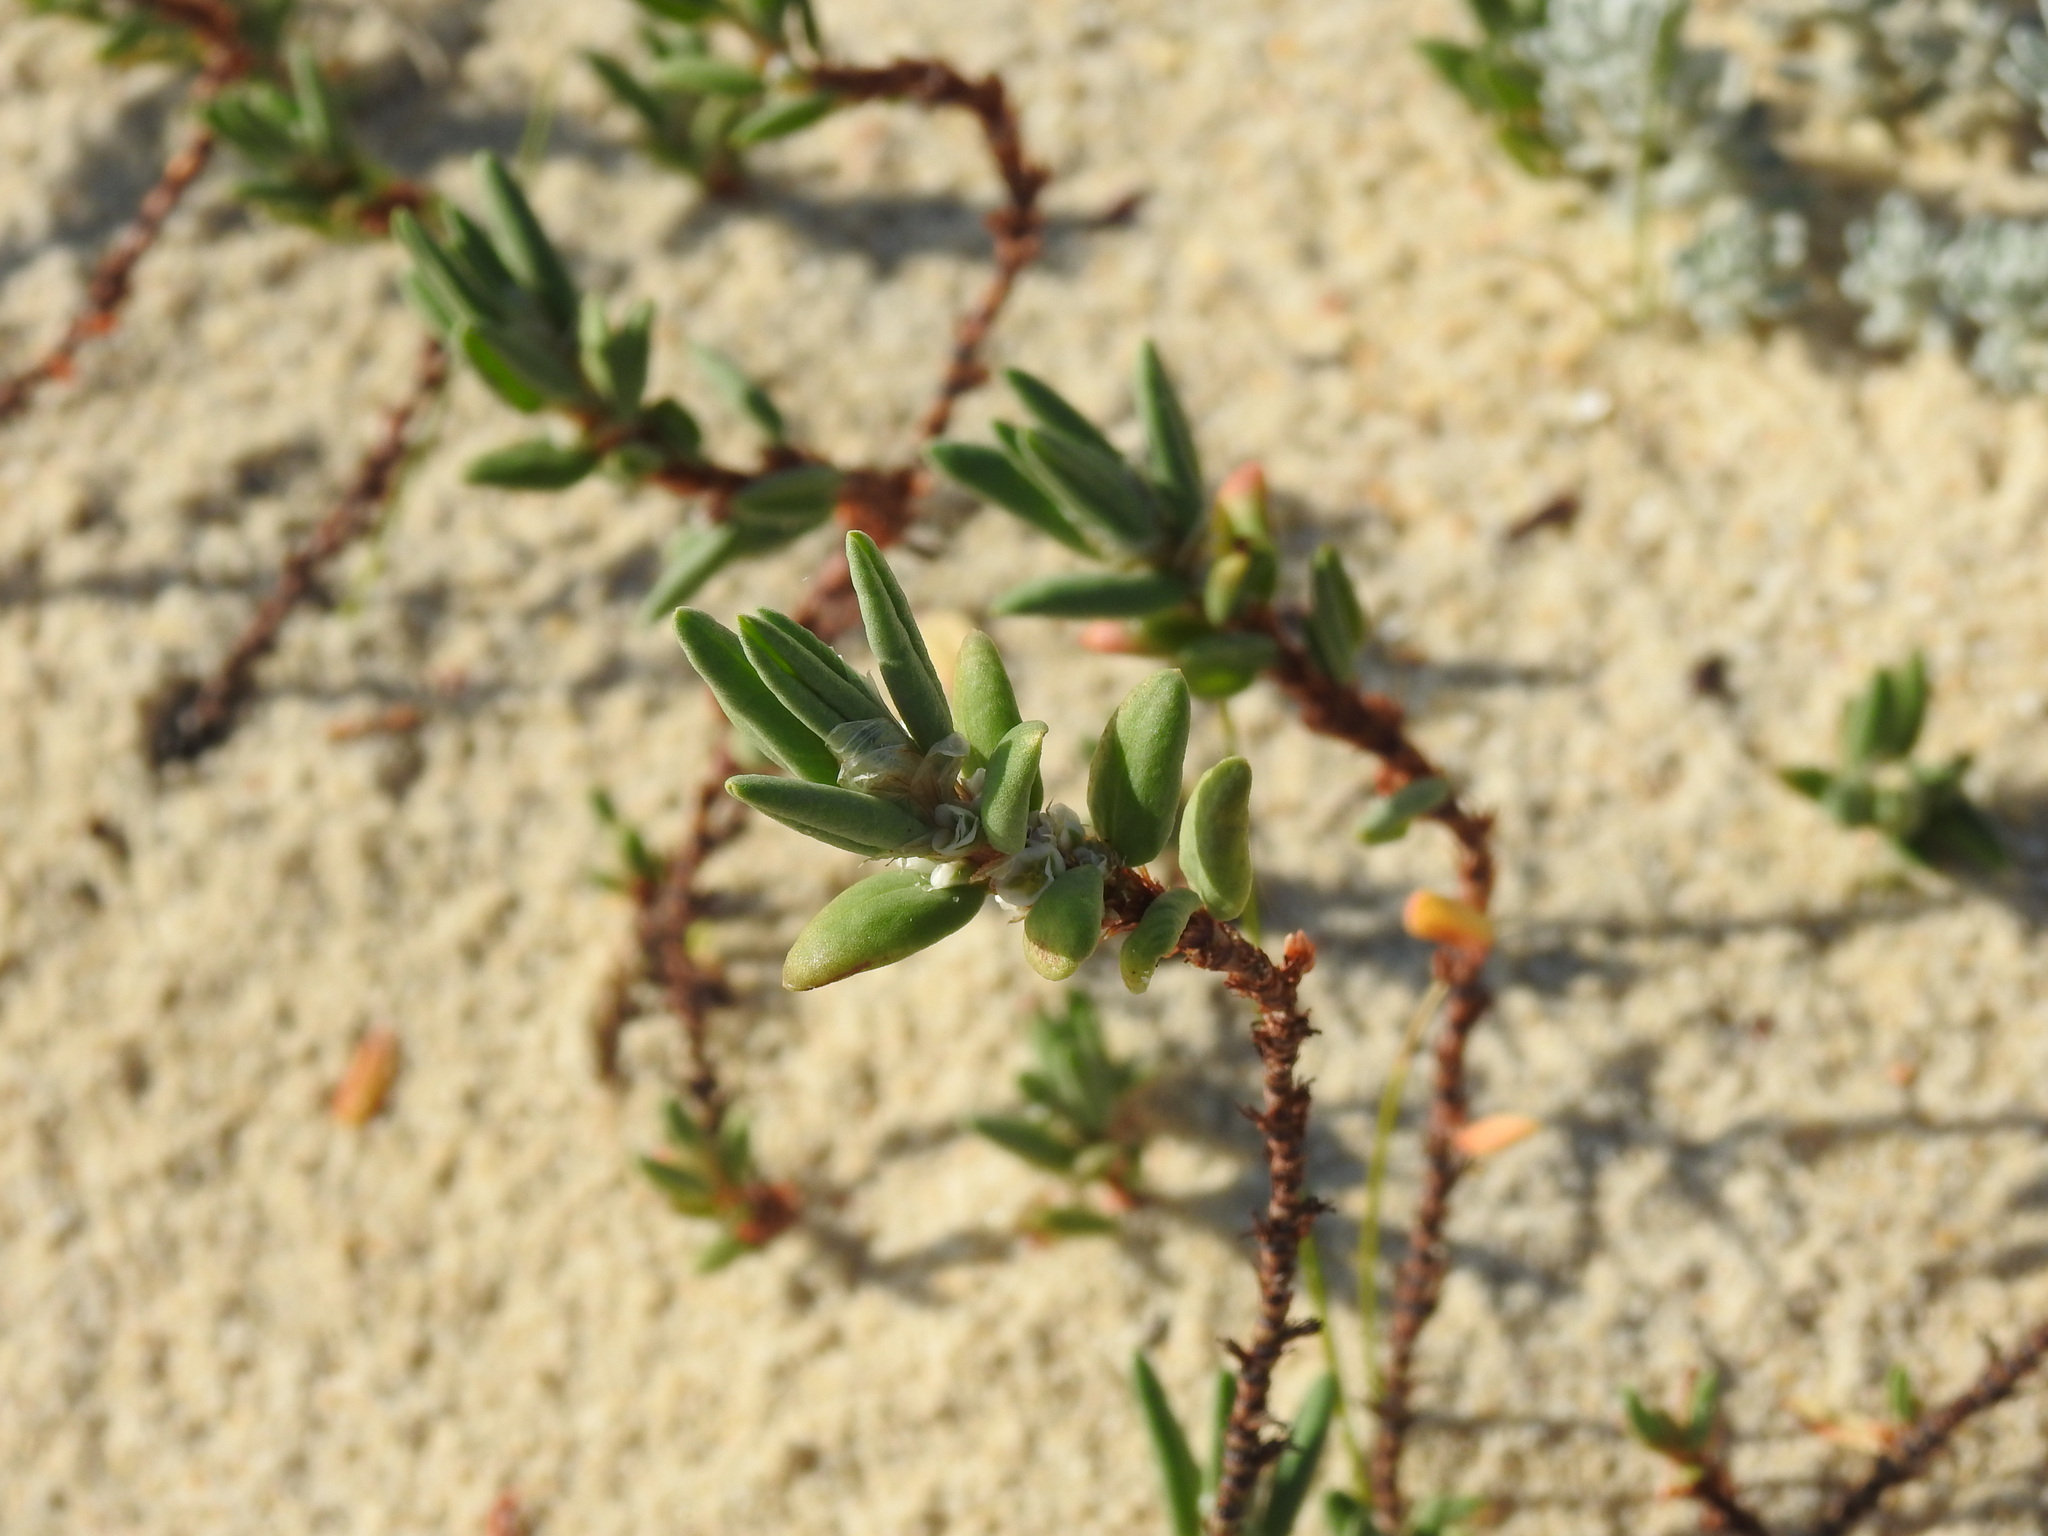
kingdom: Plantae
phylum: Tracheophyta
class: Magnoliopsida
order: Caryophyllales
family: Polygonaceae
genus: Polygonum
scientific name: Polygonum maritimum
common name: Sea knotgrass
